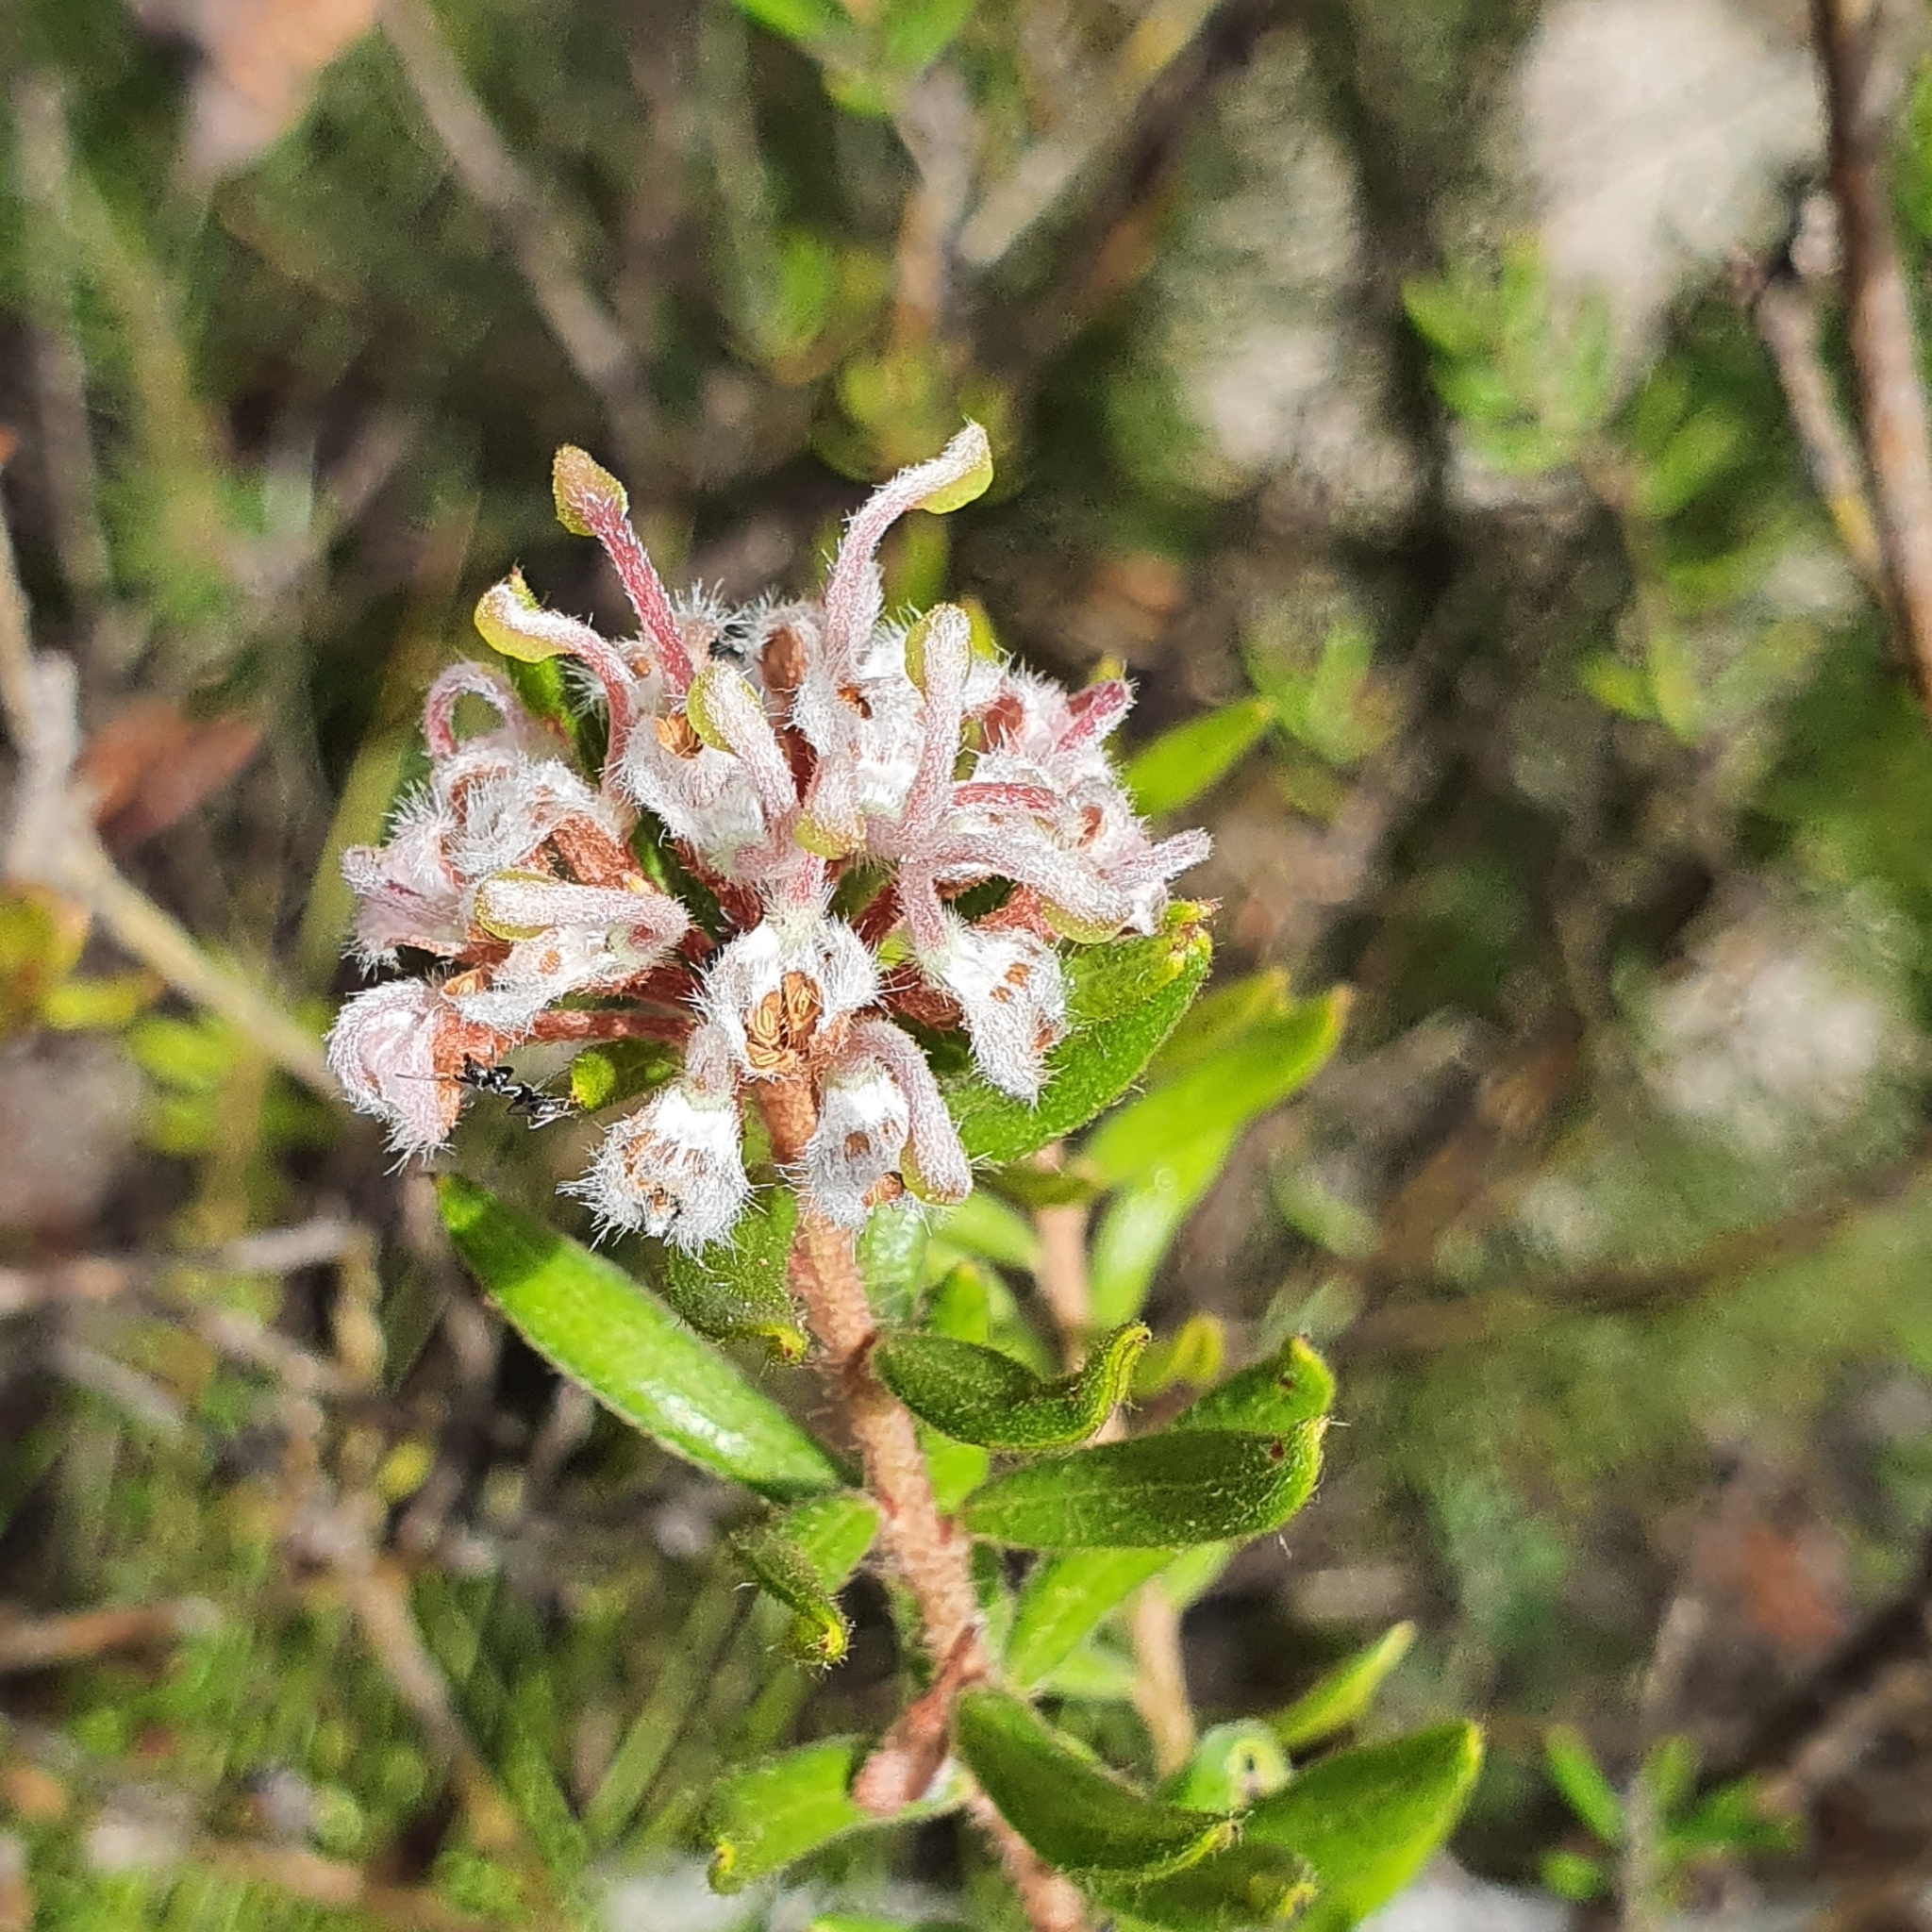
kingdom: Plantae
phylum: Tracheophyta
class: Magnoliopsida
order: Proteales
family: Proteaceae
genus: Grevillea
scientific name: Grevillea buxifolia
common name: Grey spiderflower
